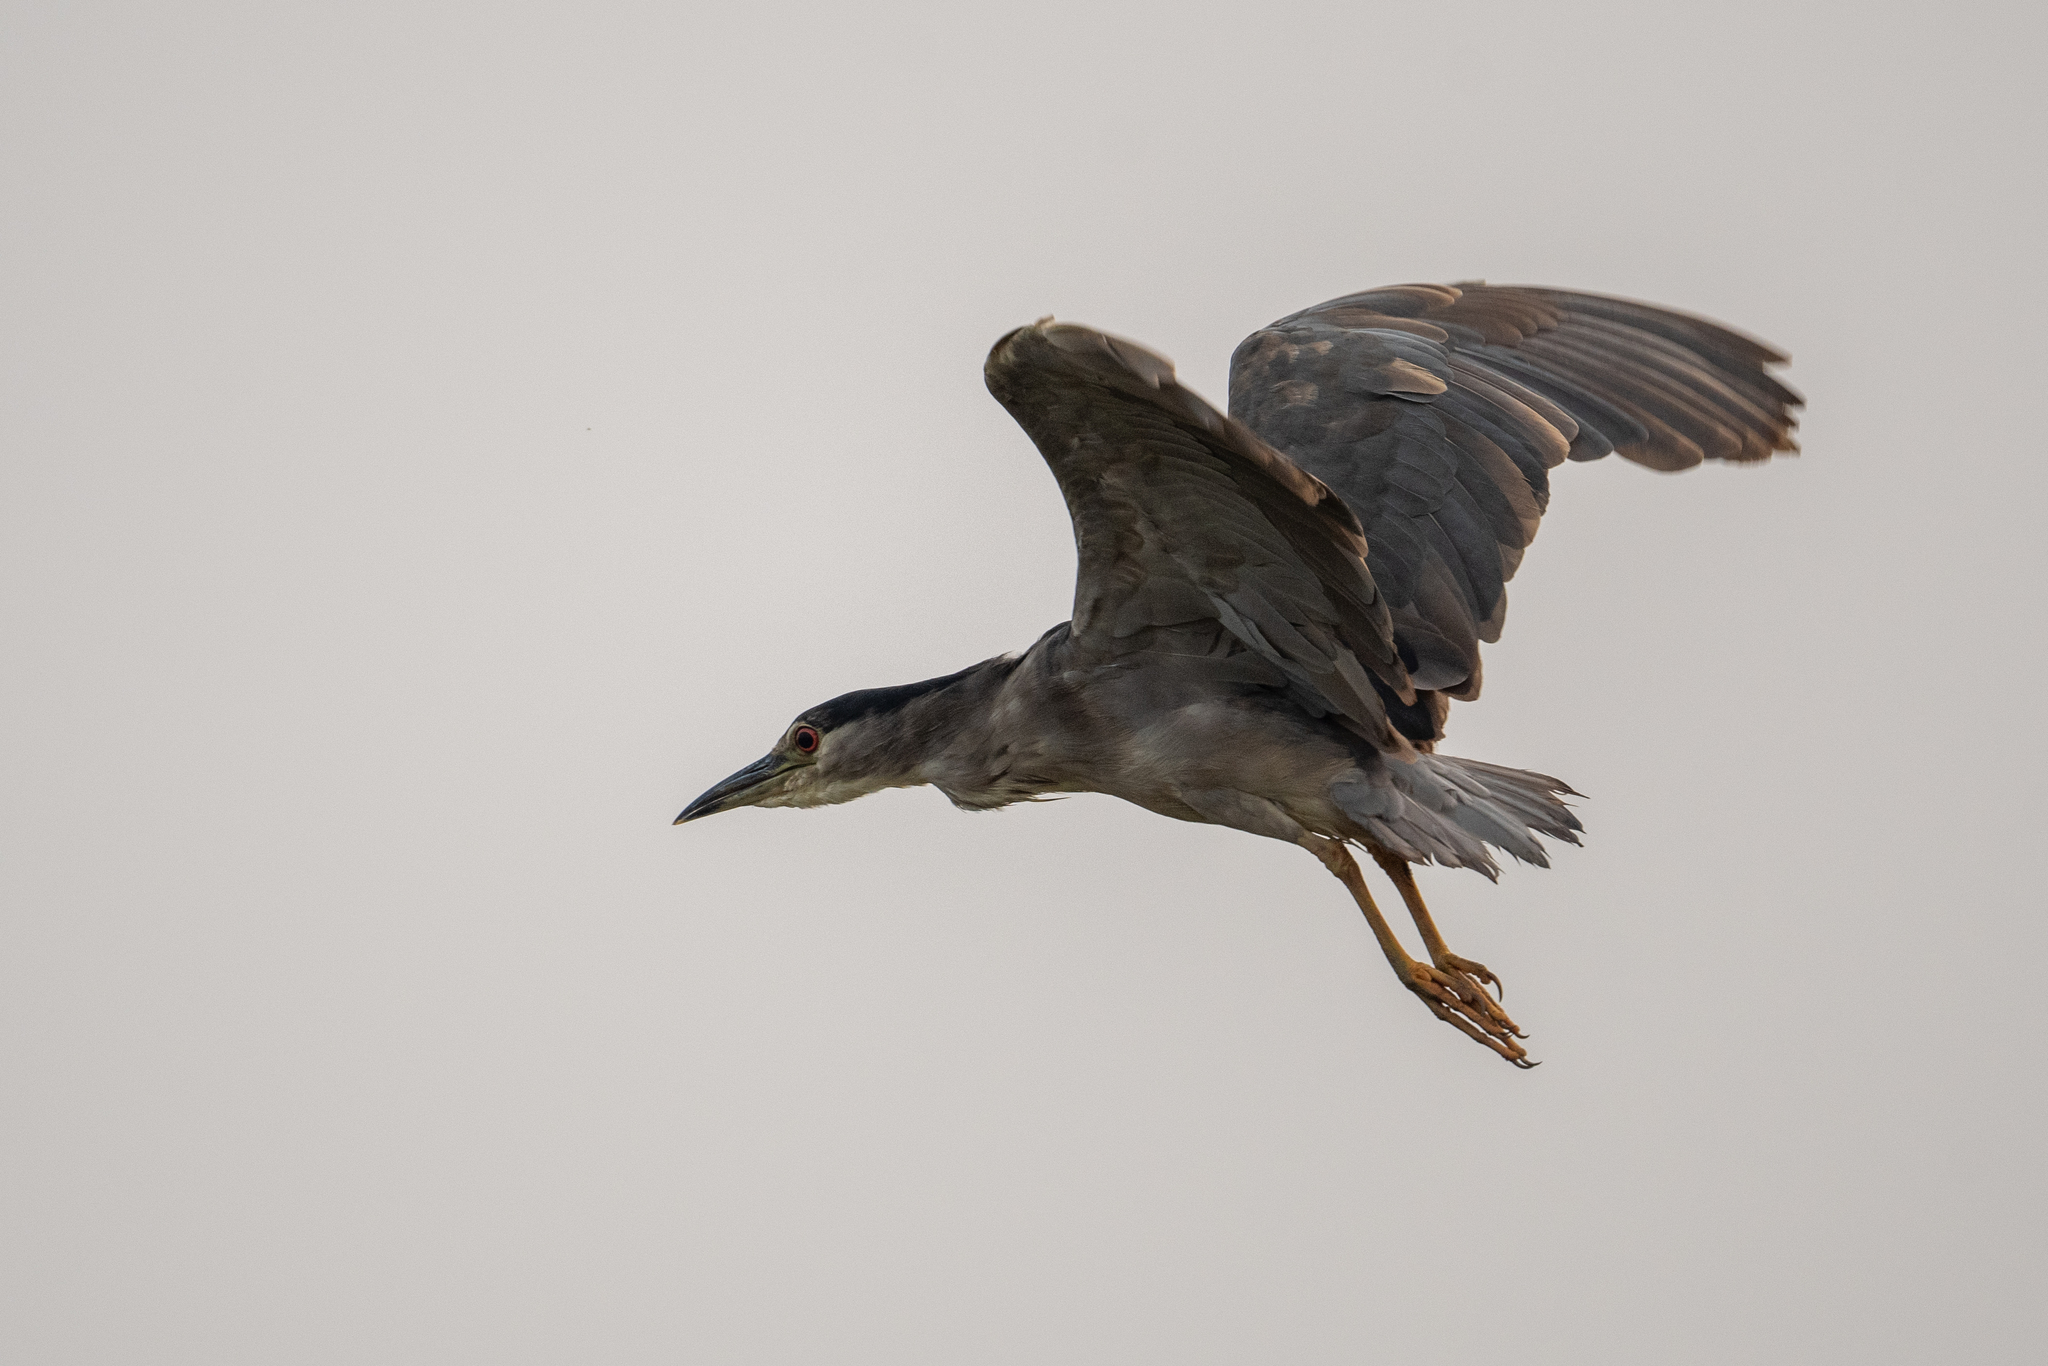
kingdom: Animalia
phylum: Chordata
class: Aves
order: Pelecaniformes
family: Ardeidae
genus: Nycticorax
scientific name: Nycticorax nycticorax
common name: Black-crowned night heron
